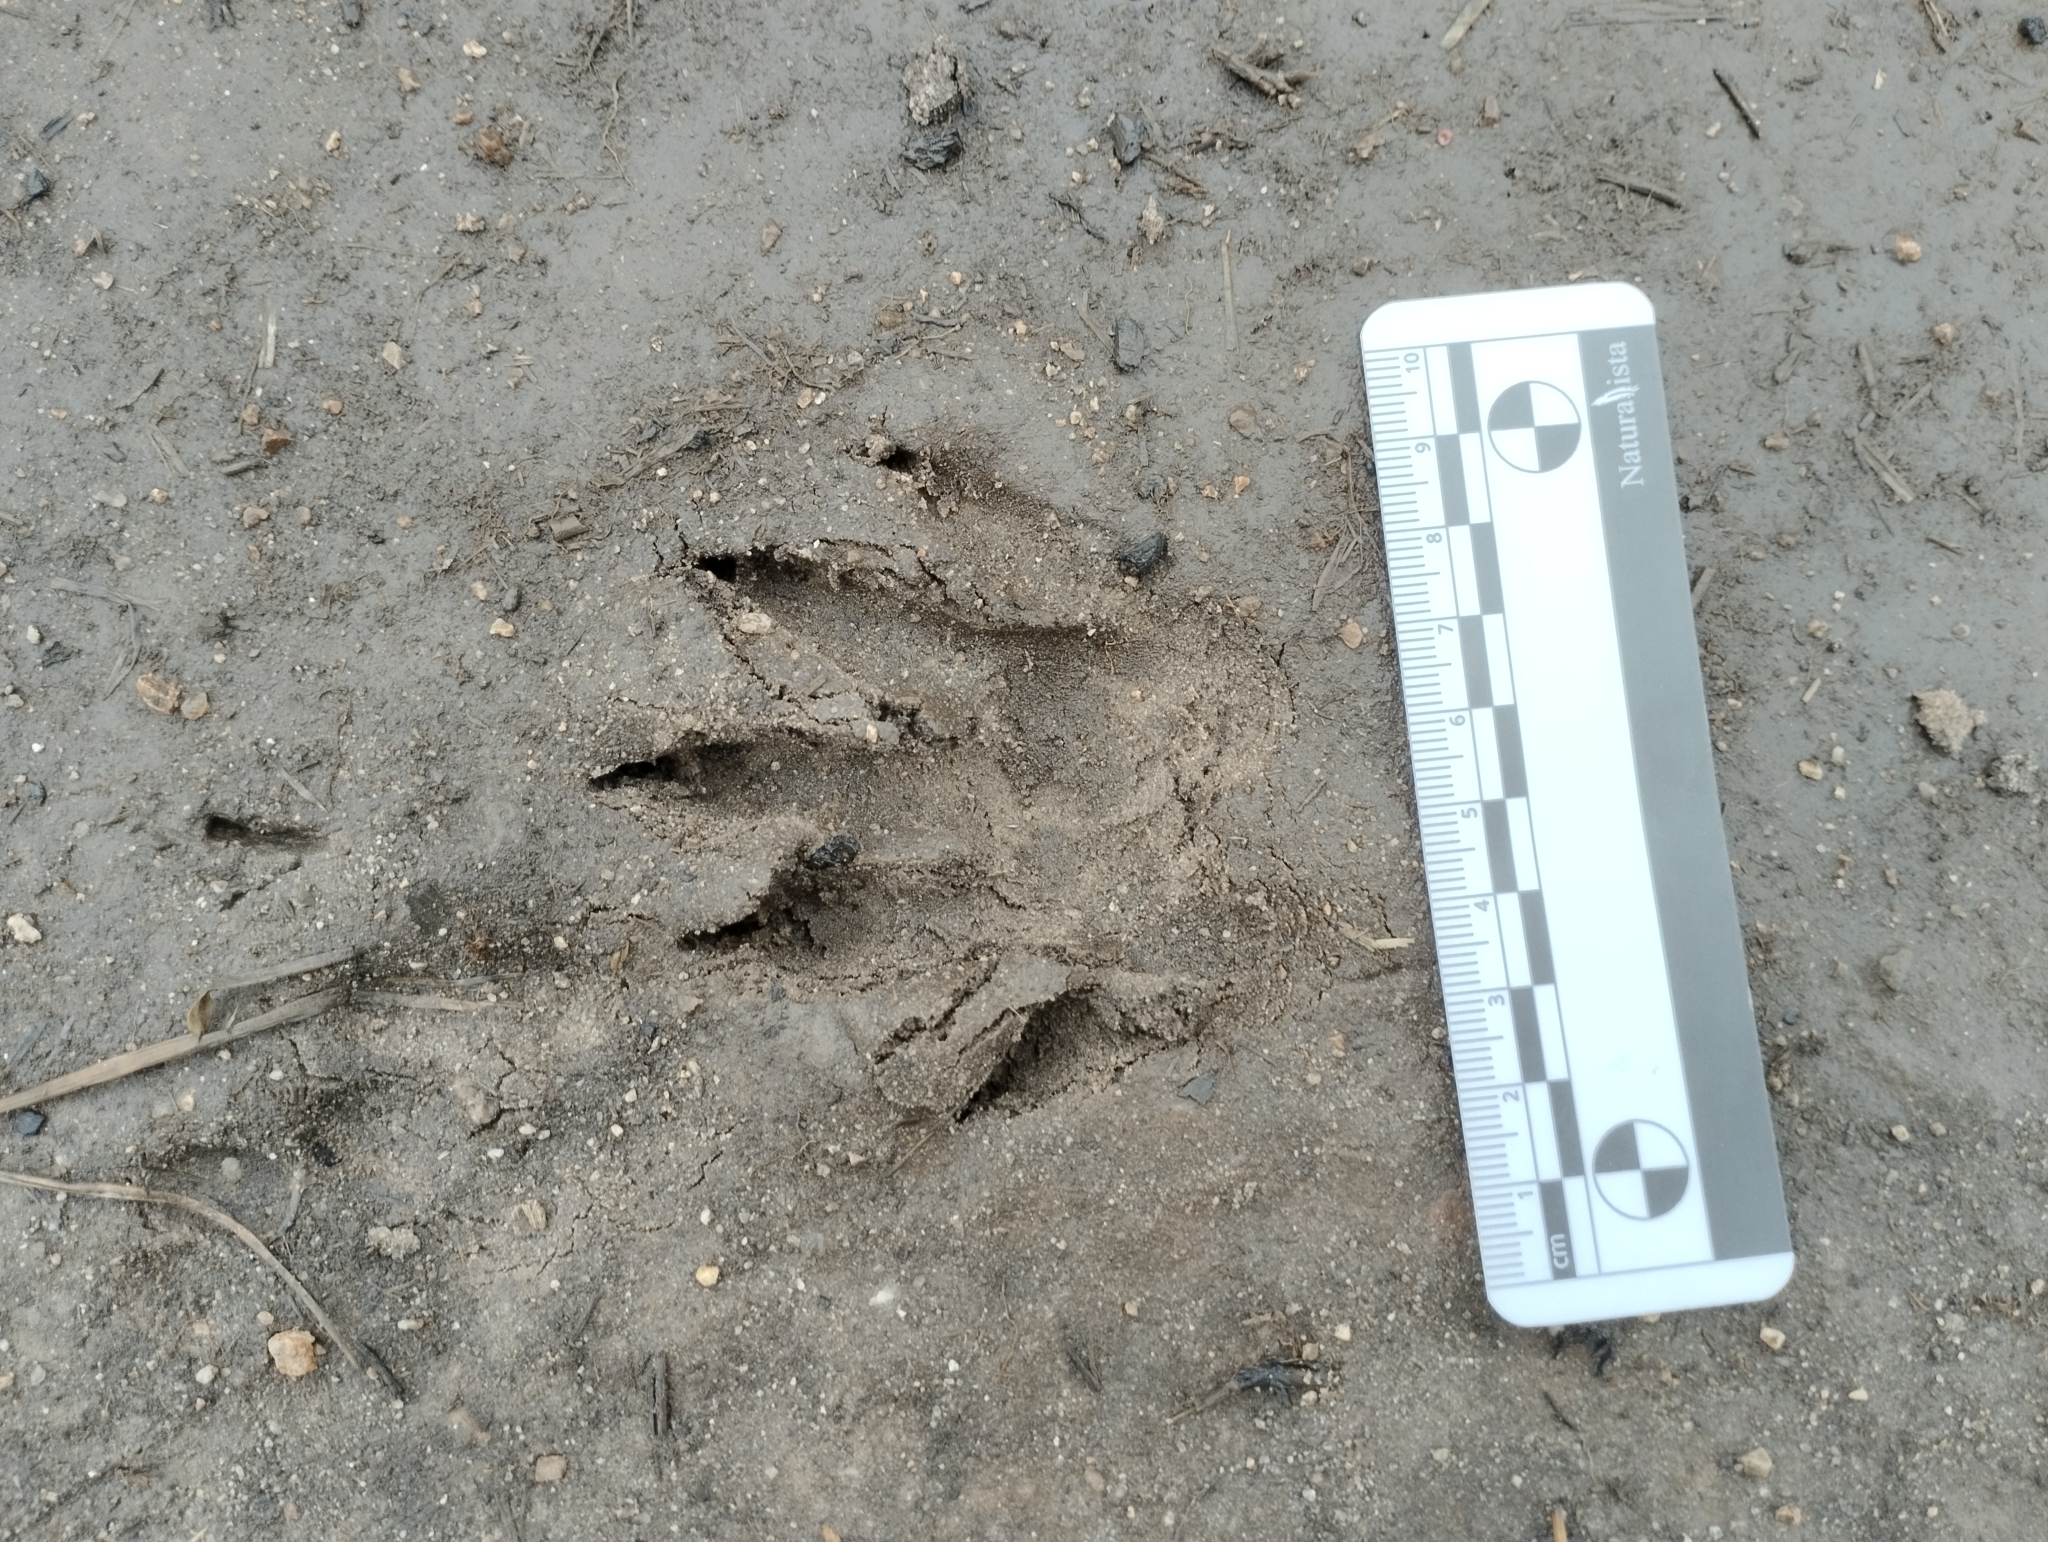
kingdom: Animalia
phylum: Chordata
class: Mammalia
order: Carnivora
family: Procyonidae
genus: Procyon
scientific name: Procyon cancrivorus
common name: Crab-eating raccoon
